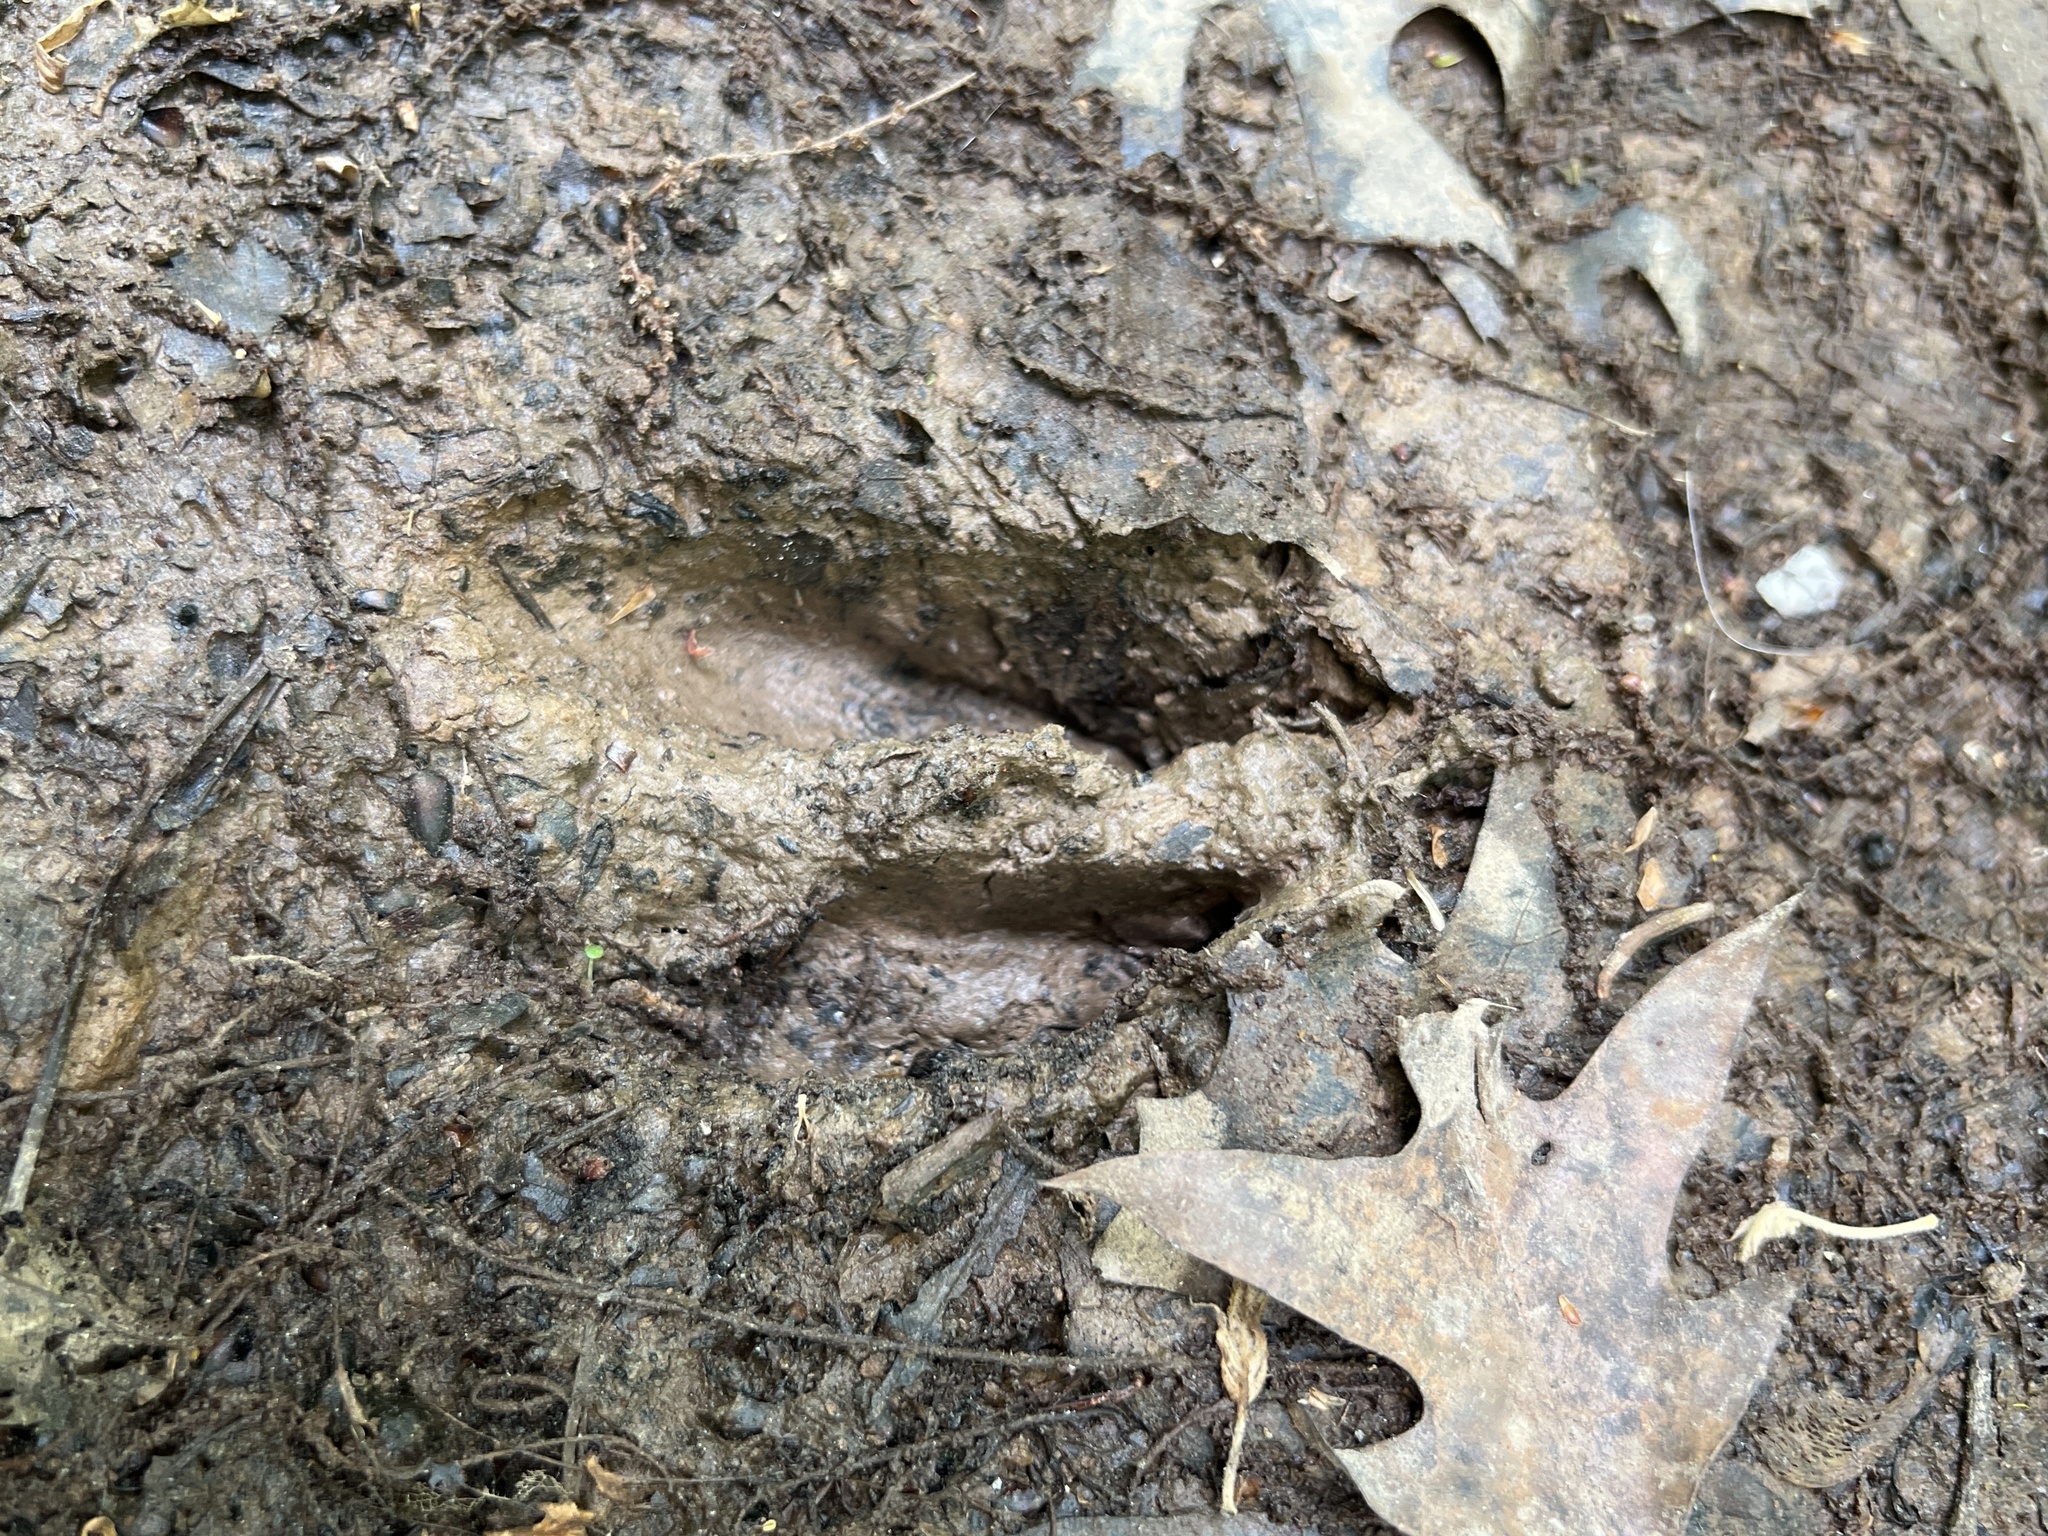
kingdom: Animalia
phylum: Chordata
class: Mammalia
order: Artiodactyla
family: Cervidae
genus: Odocoileus
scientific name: Odocoileus virginianus
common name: White-tailed deer
